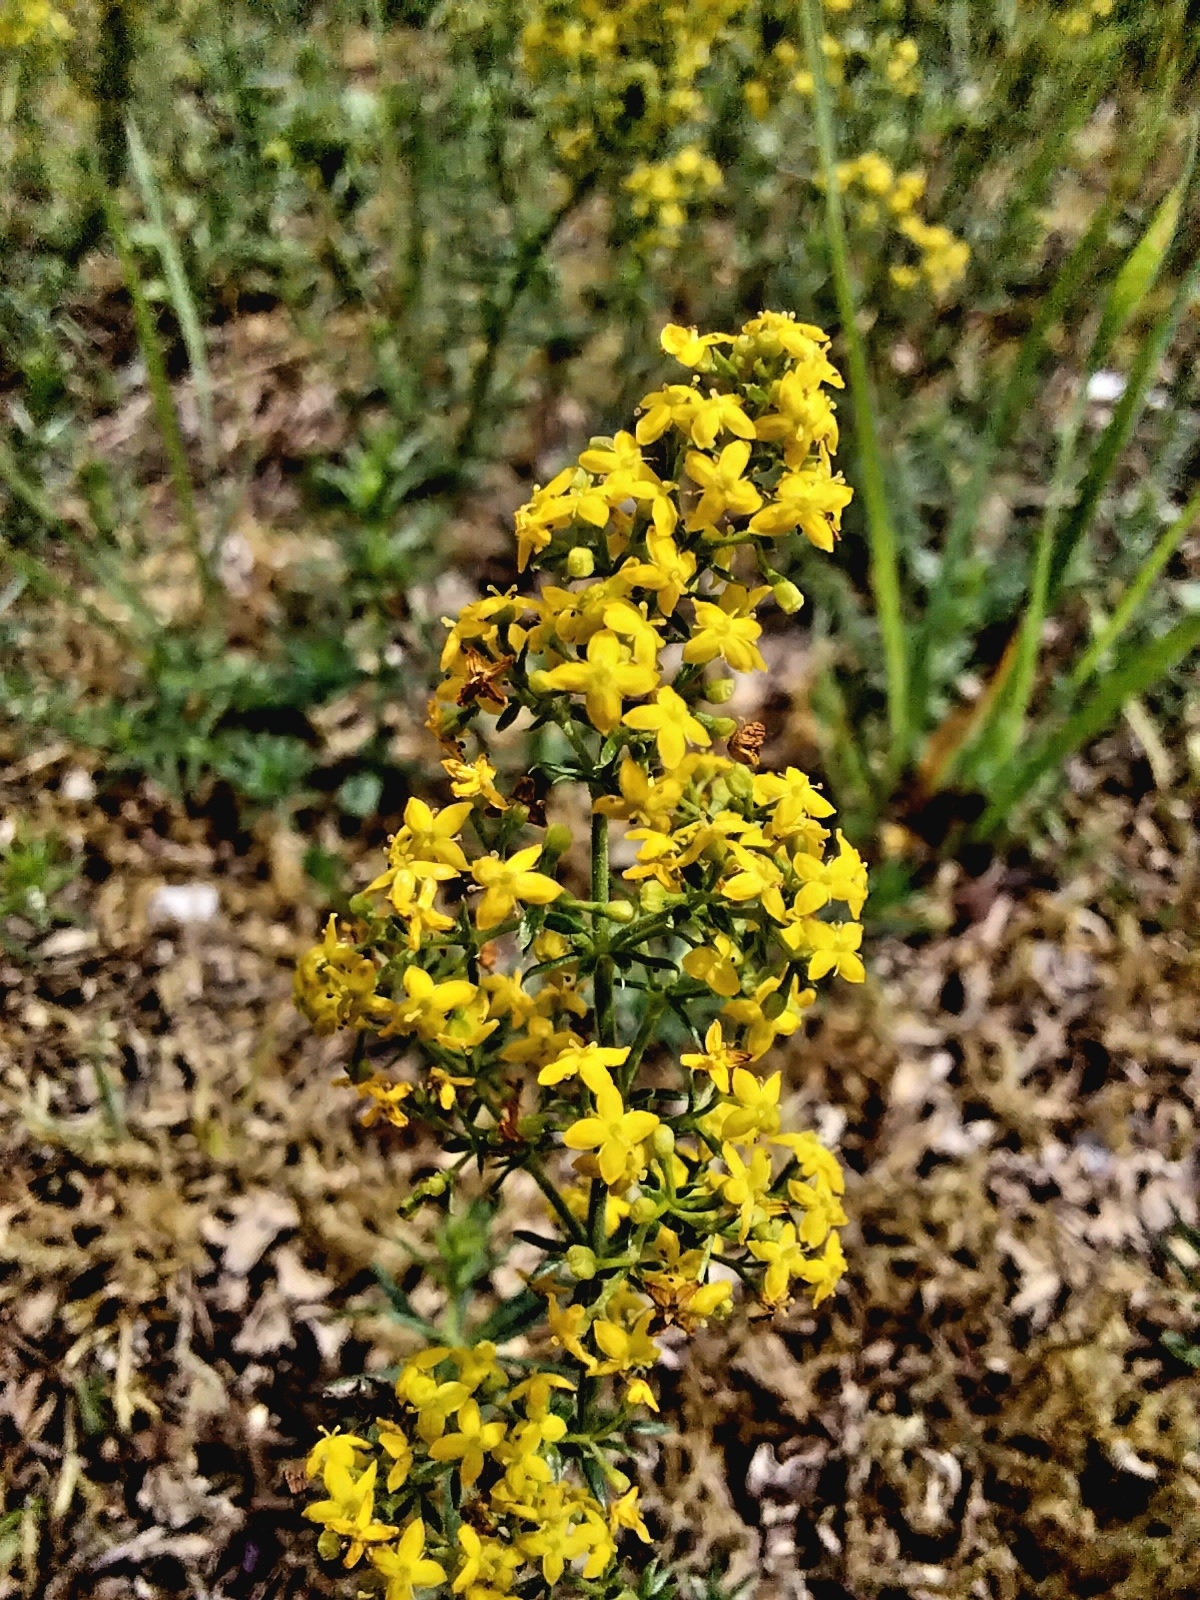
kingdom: Plantae
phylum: Tracheophyta
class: Magnoliopsida
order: Gentianales
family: Rubiaceae
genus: Galium
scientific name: Galium verum
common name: Lady's bedstraw
